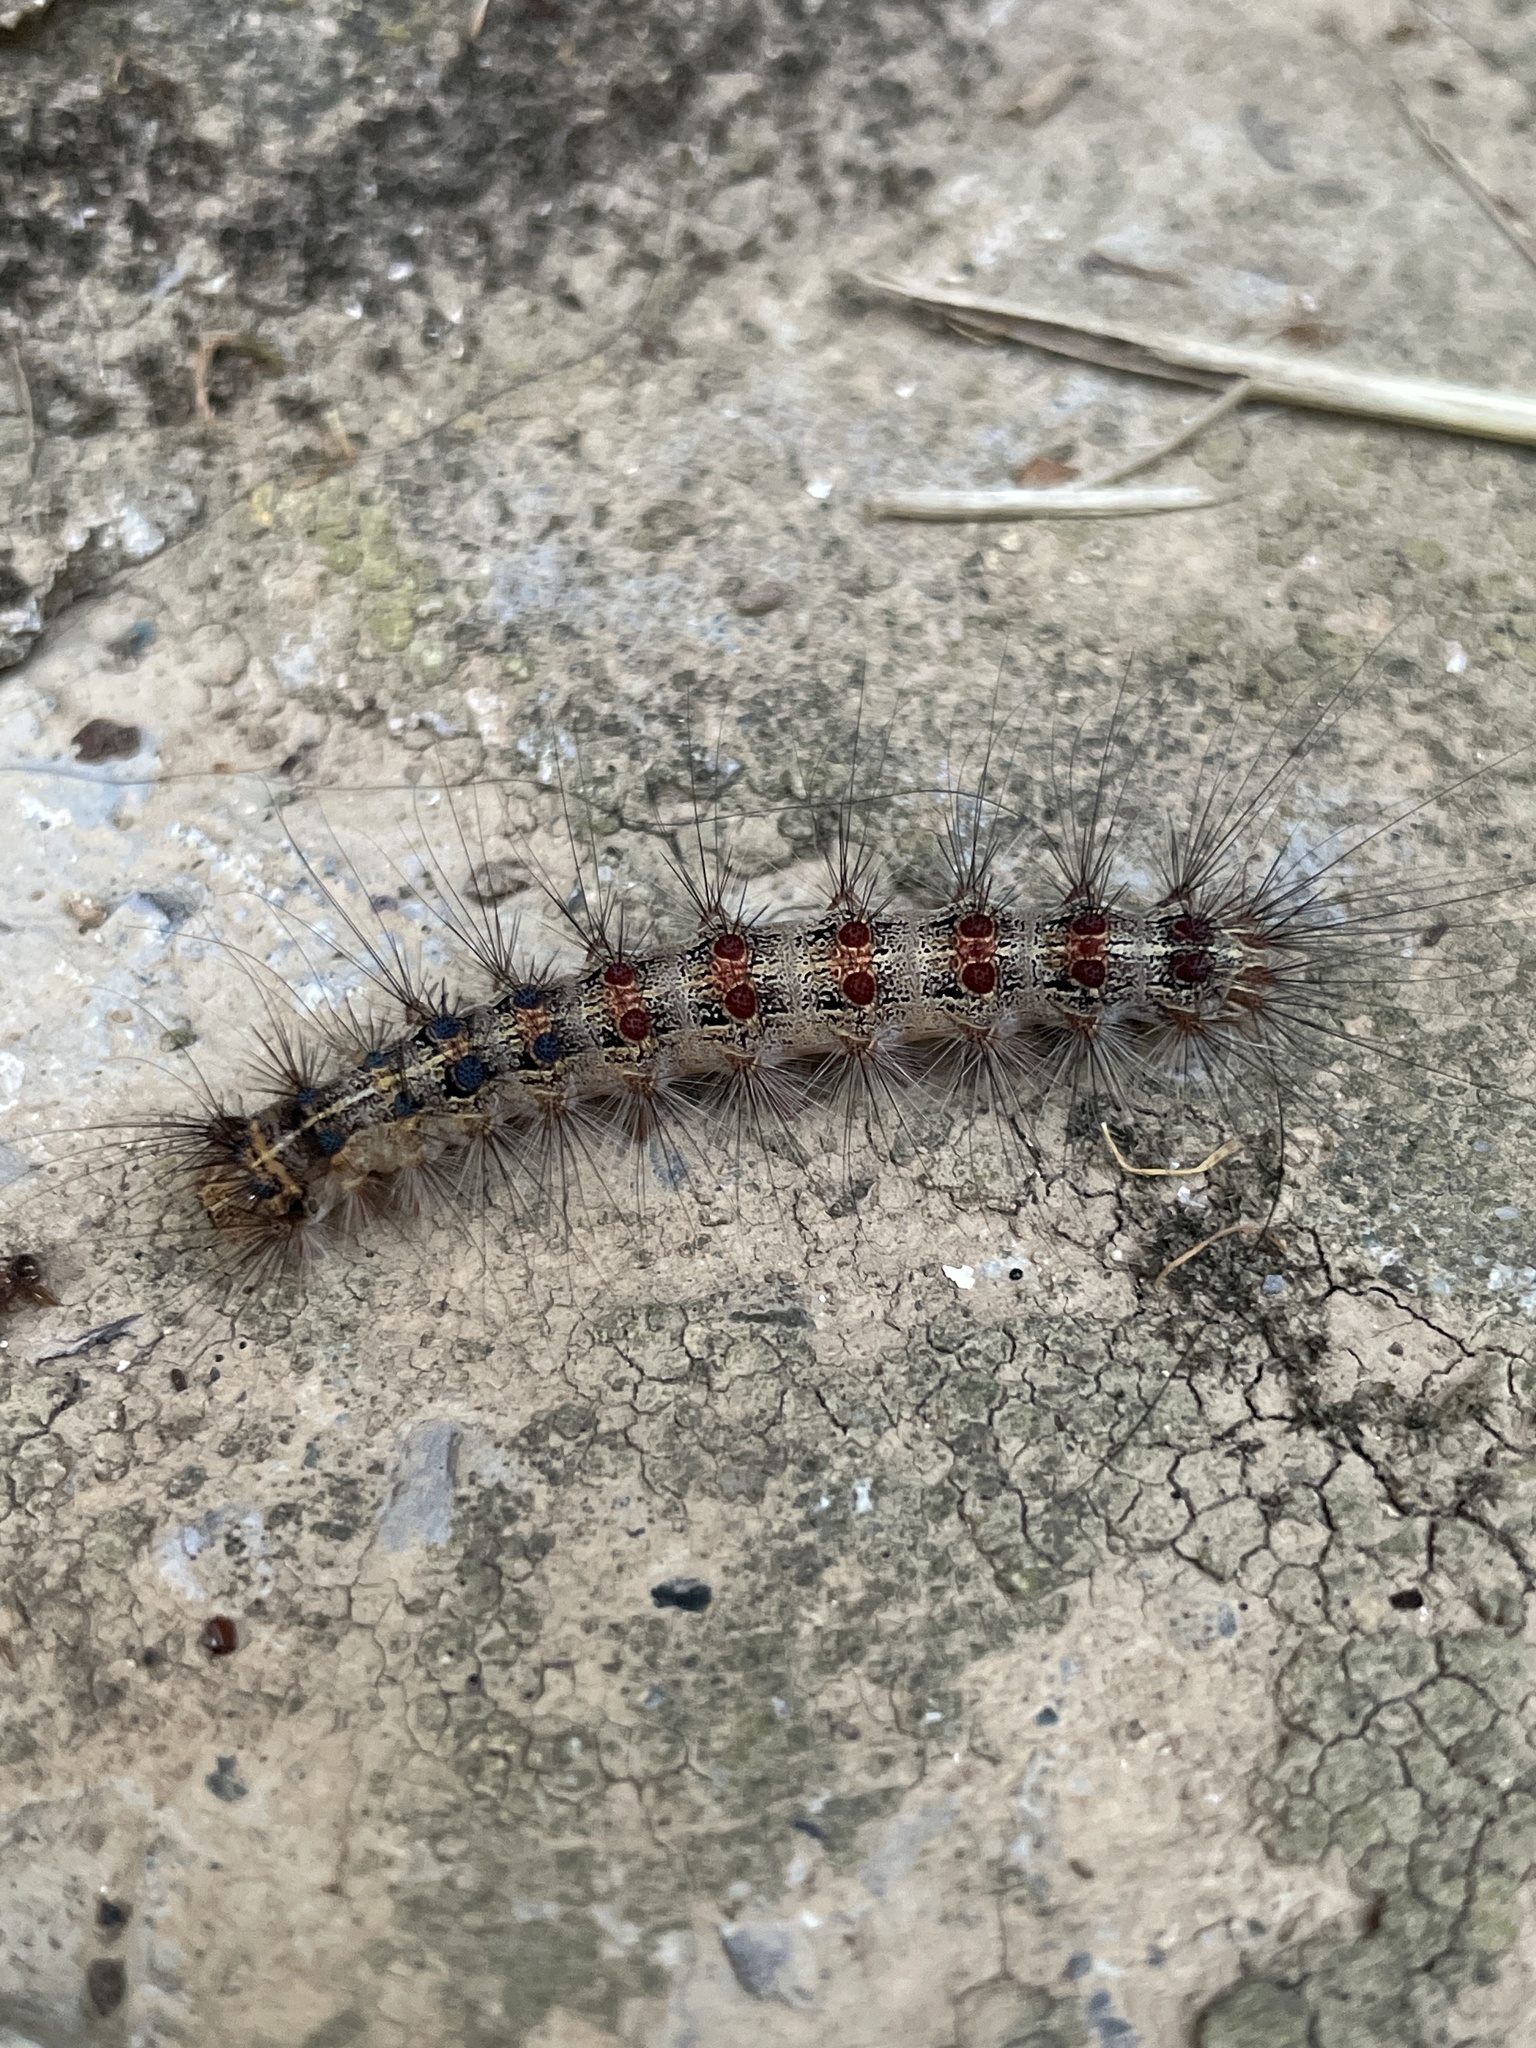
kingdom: Animalia
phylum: Arthropoda
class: Insecta
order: Lepidoptera
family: Erebidae
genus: Lymantria
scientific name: Lymantria dispar
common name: Gypsy moth
